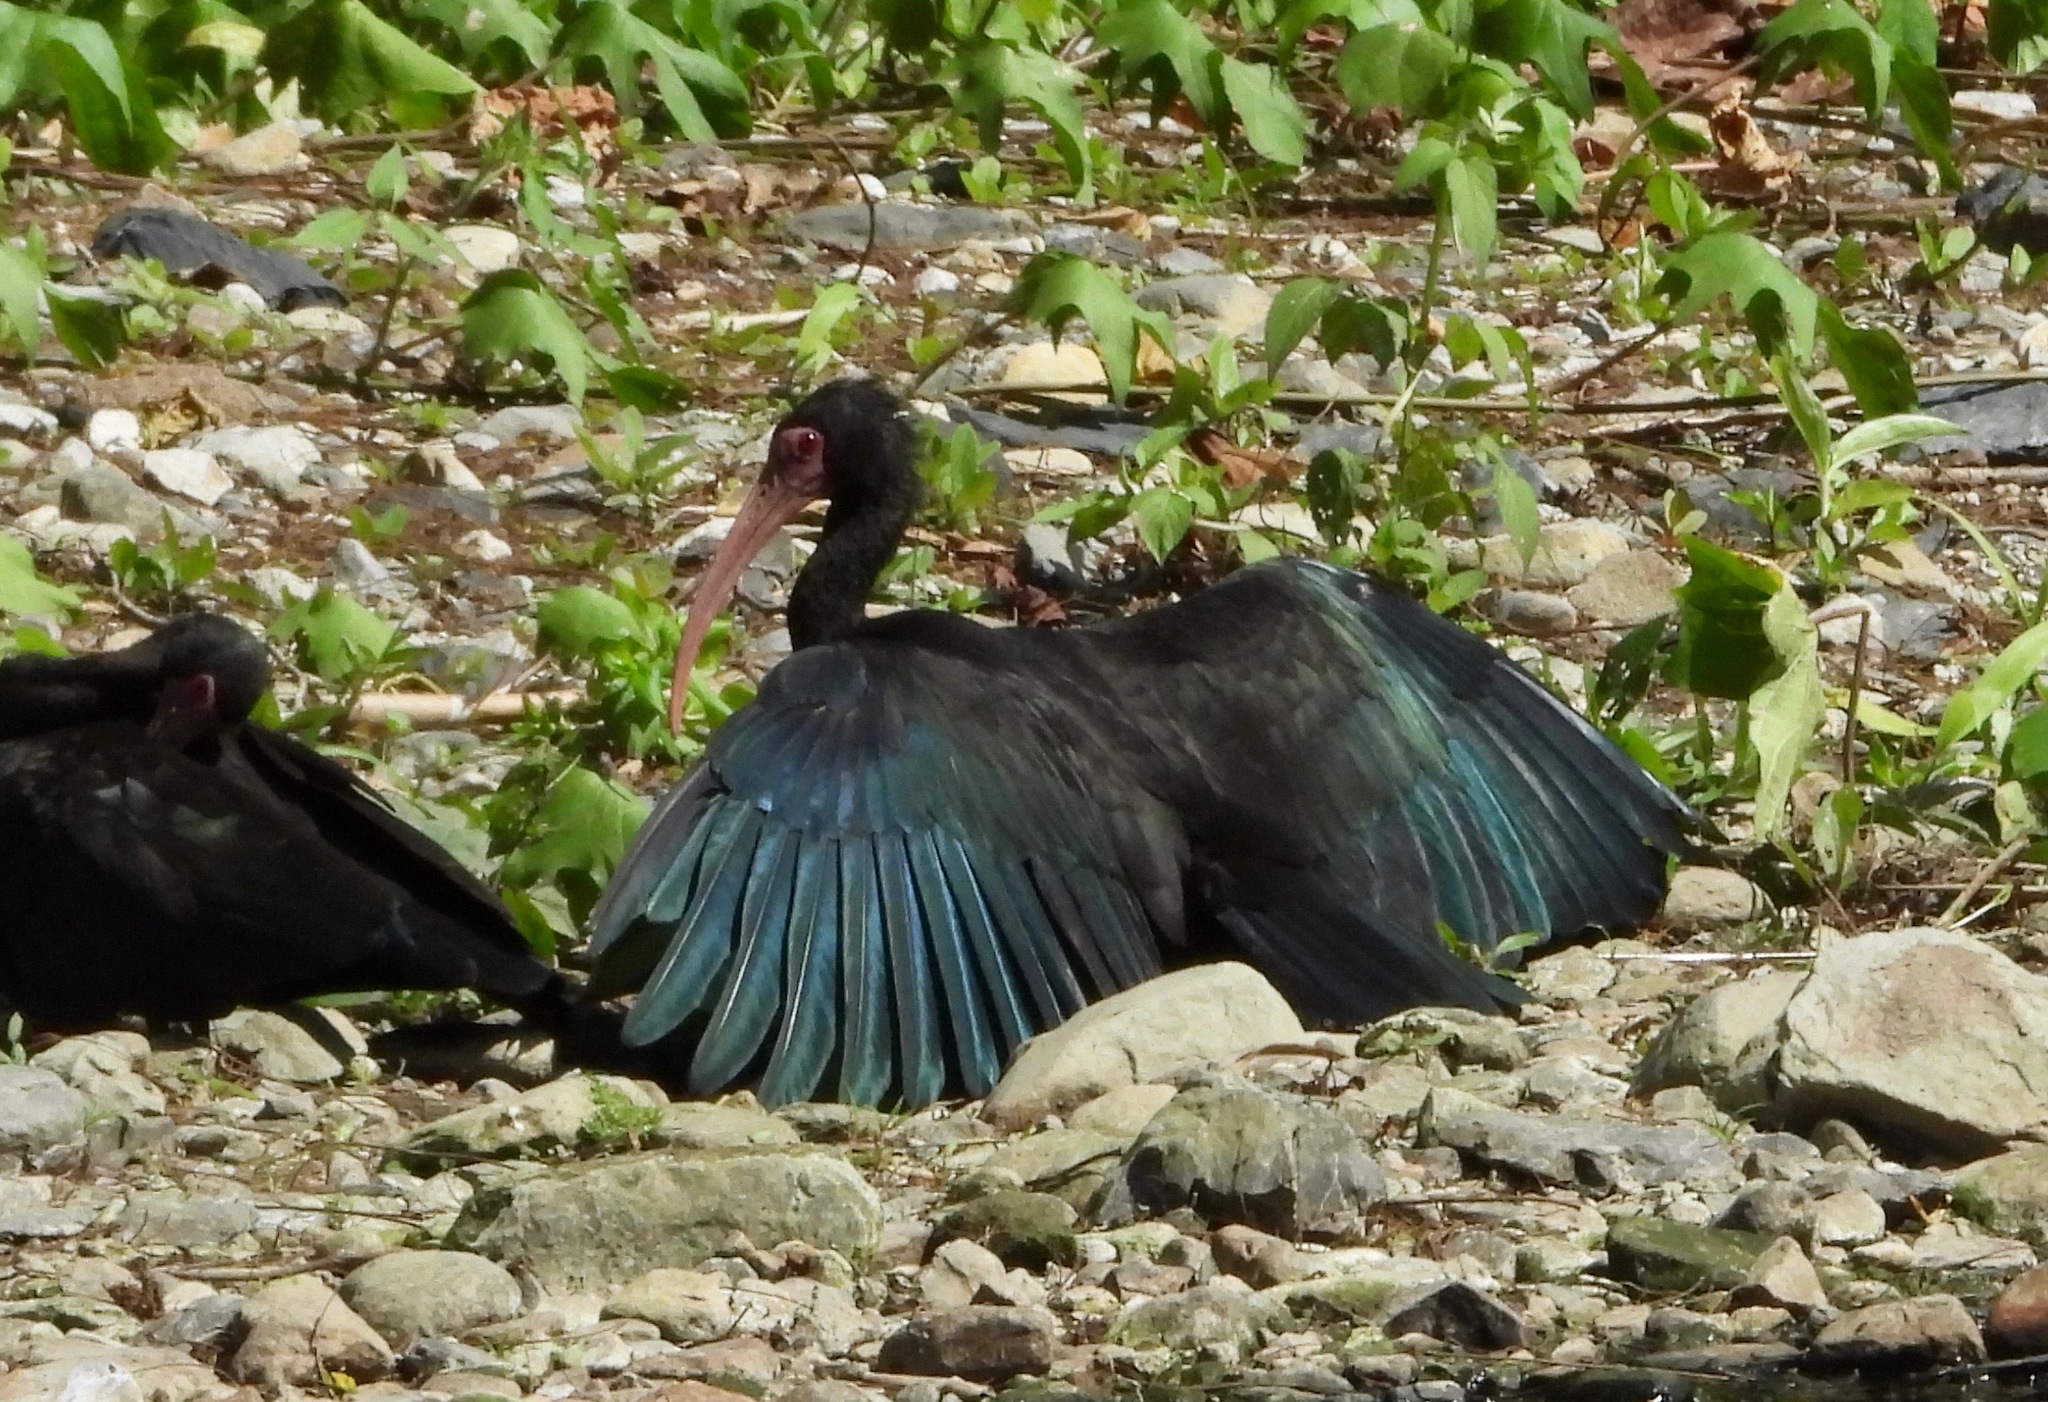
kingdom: Animalia
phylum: Chordata
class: Aves
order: Pelecaniformes
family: Threskiornithidae
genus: Phimosus
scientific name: Phimosus infuscatus
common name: Bare-faced ibis
